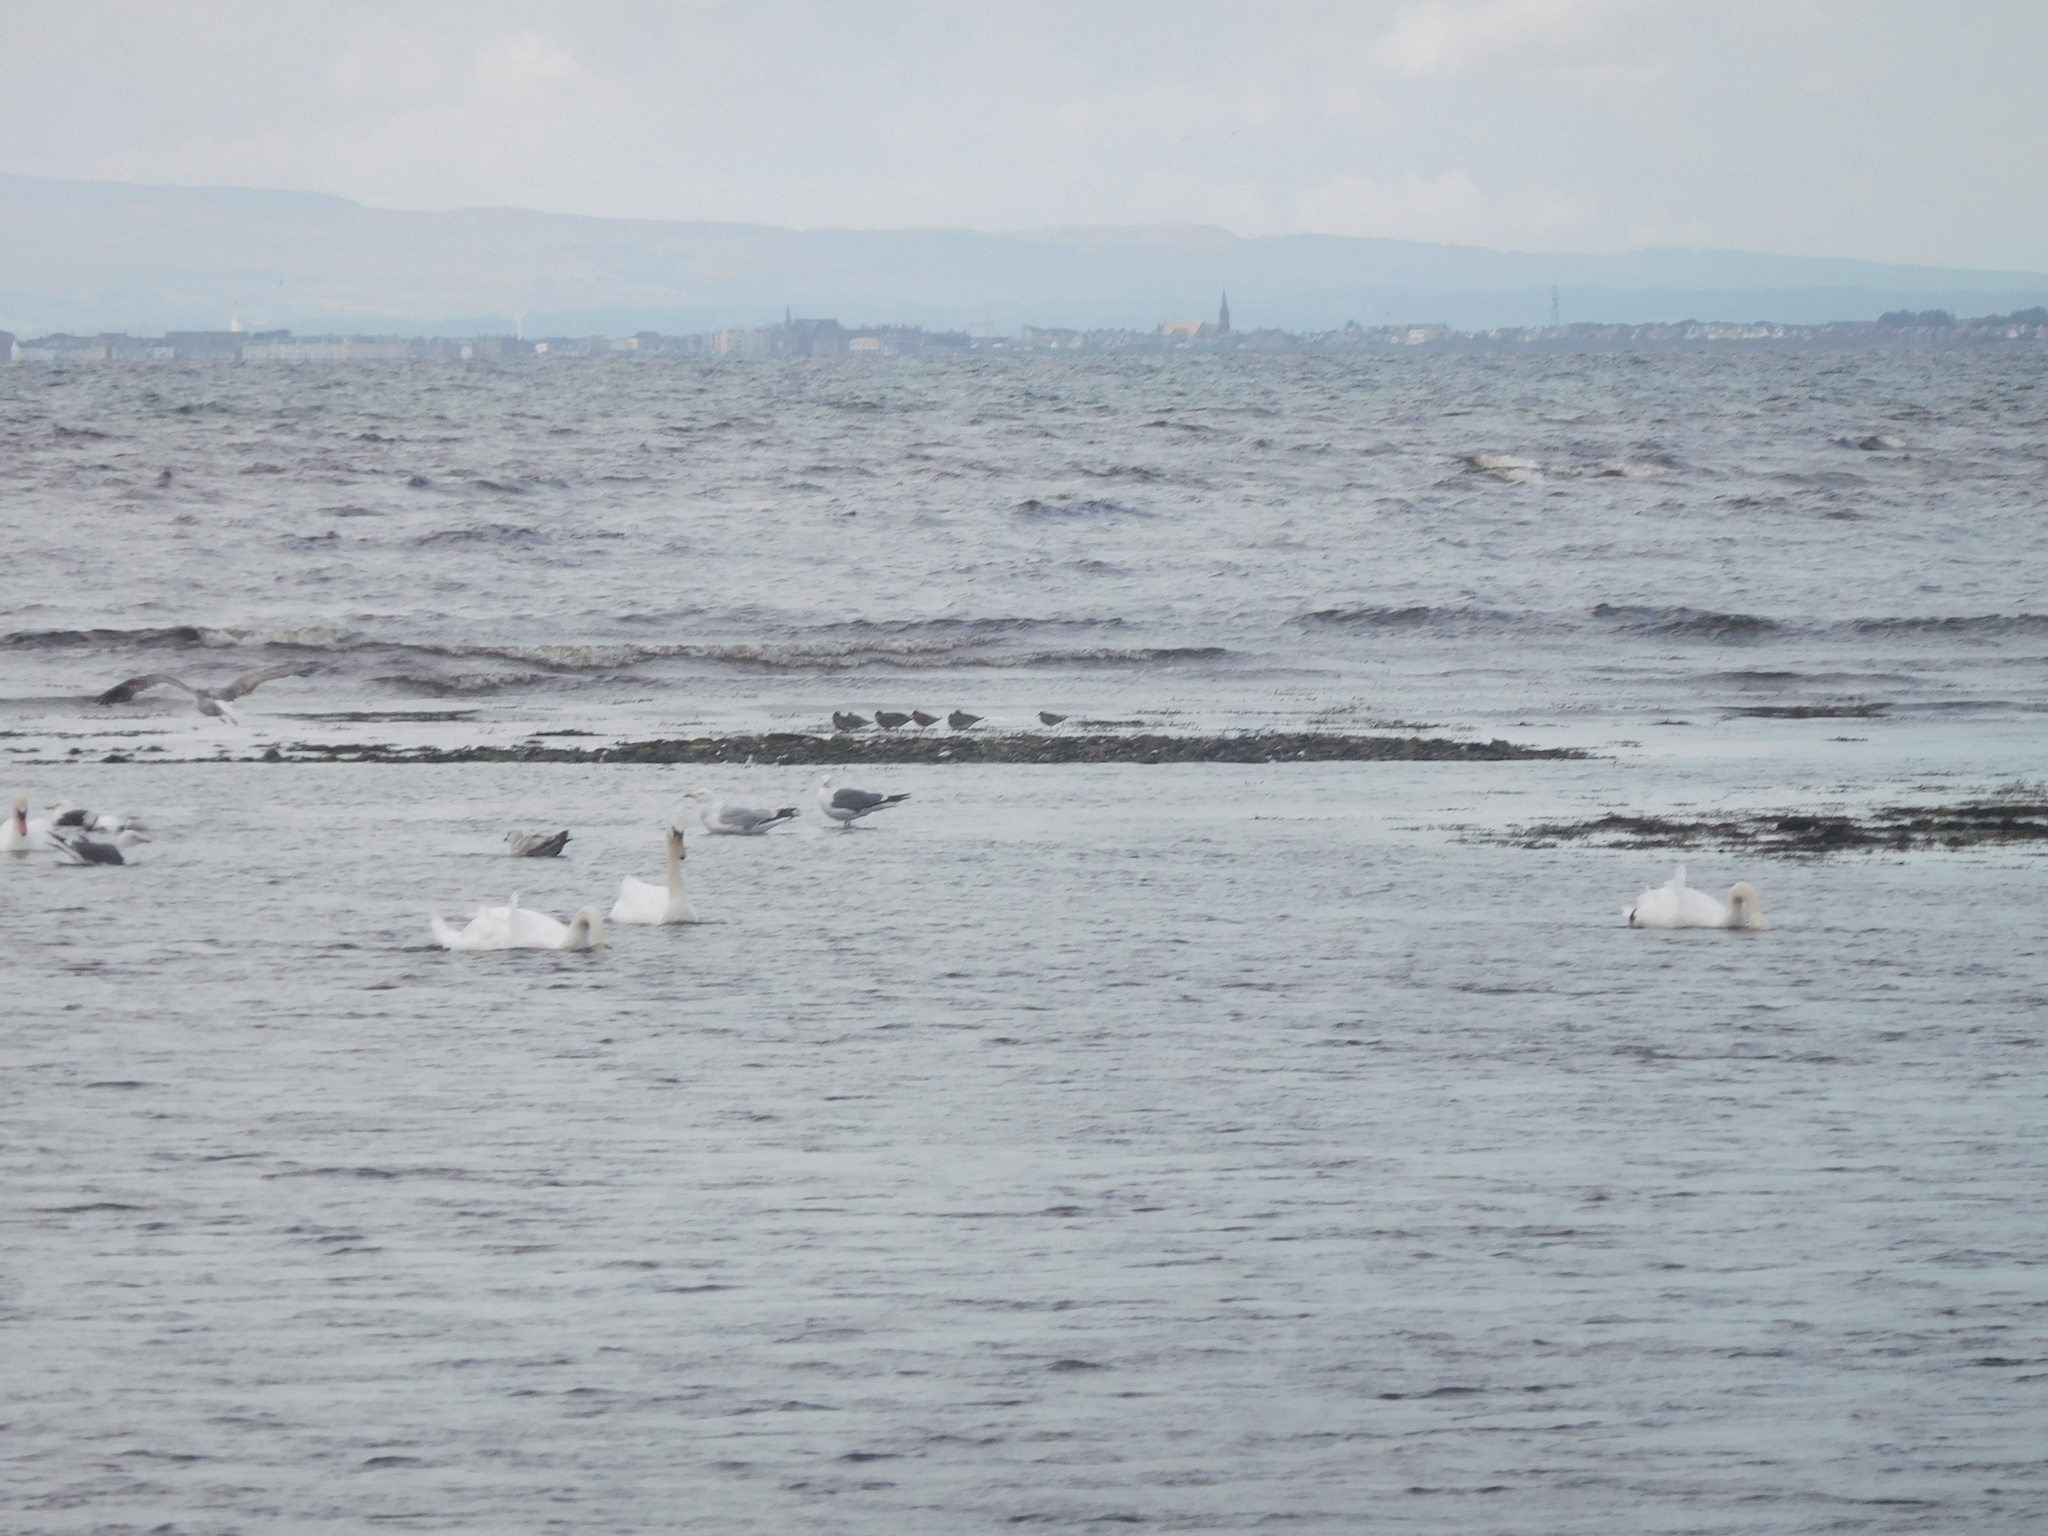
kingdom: Animalia
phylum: Chordata
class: Aves
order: Charadriiformes
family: Scolopacidae
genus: Tringa
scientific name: Tringa totanus
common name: Common redshank
